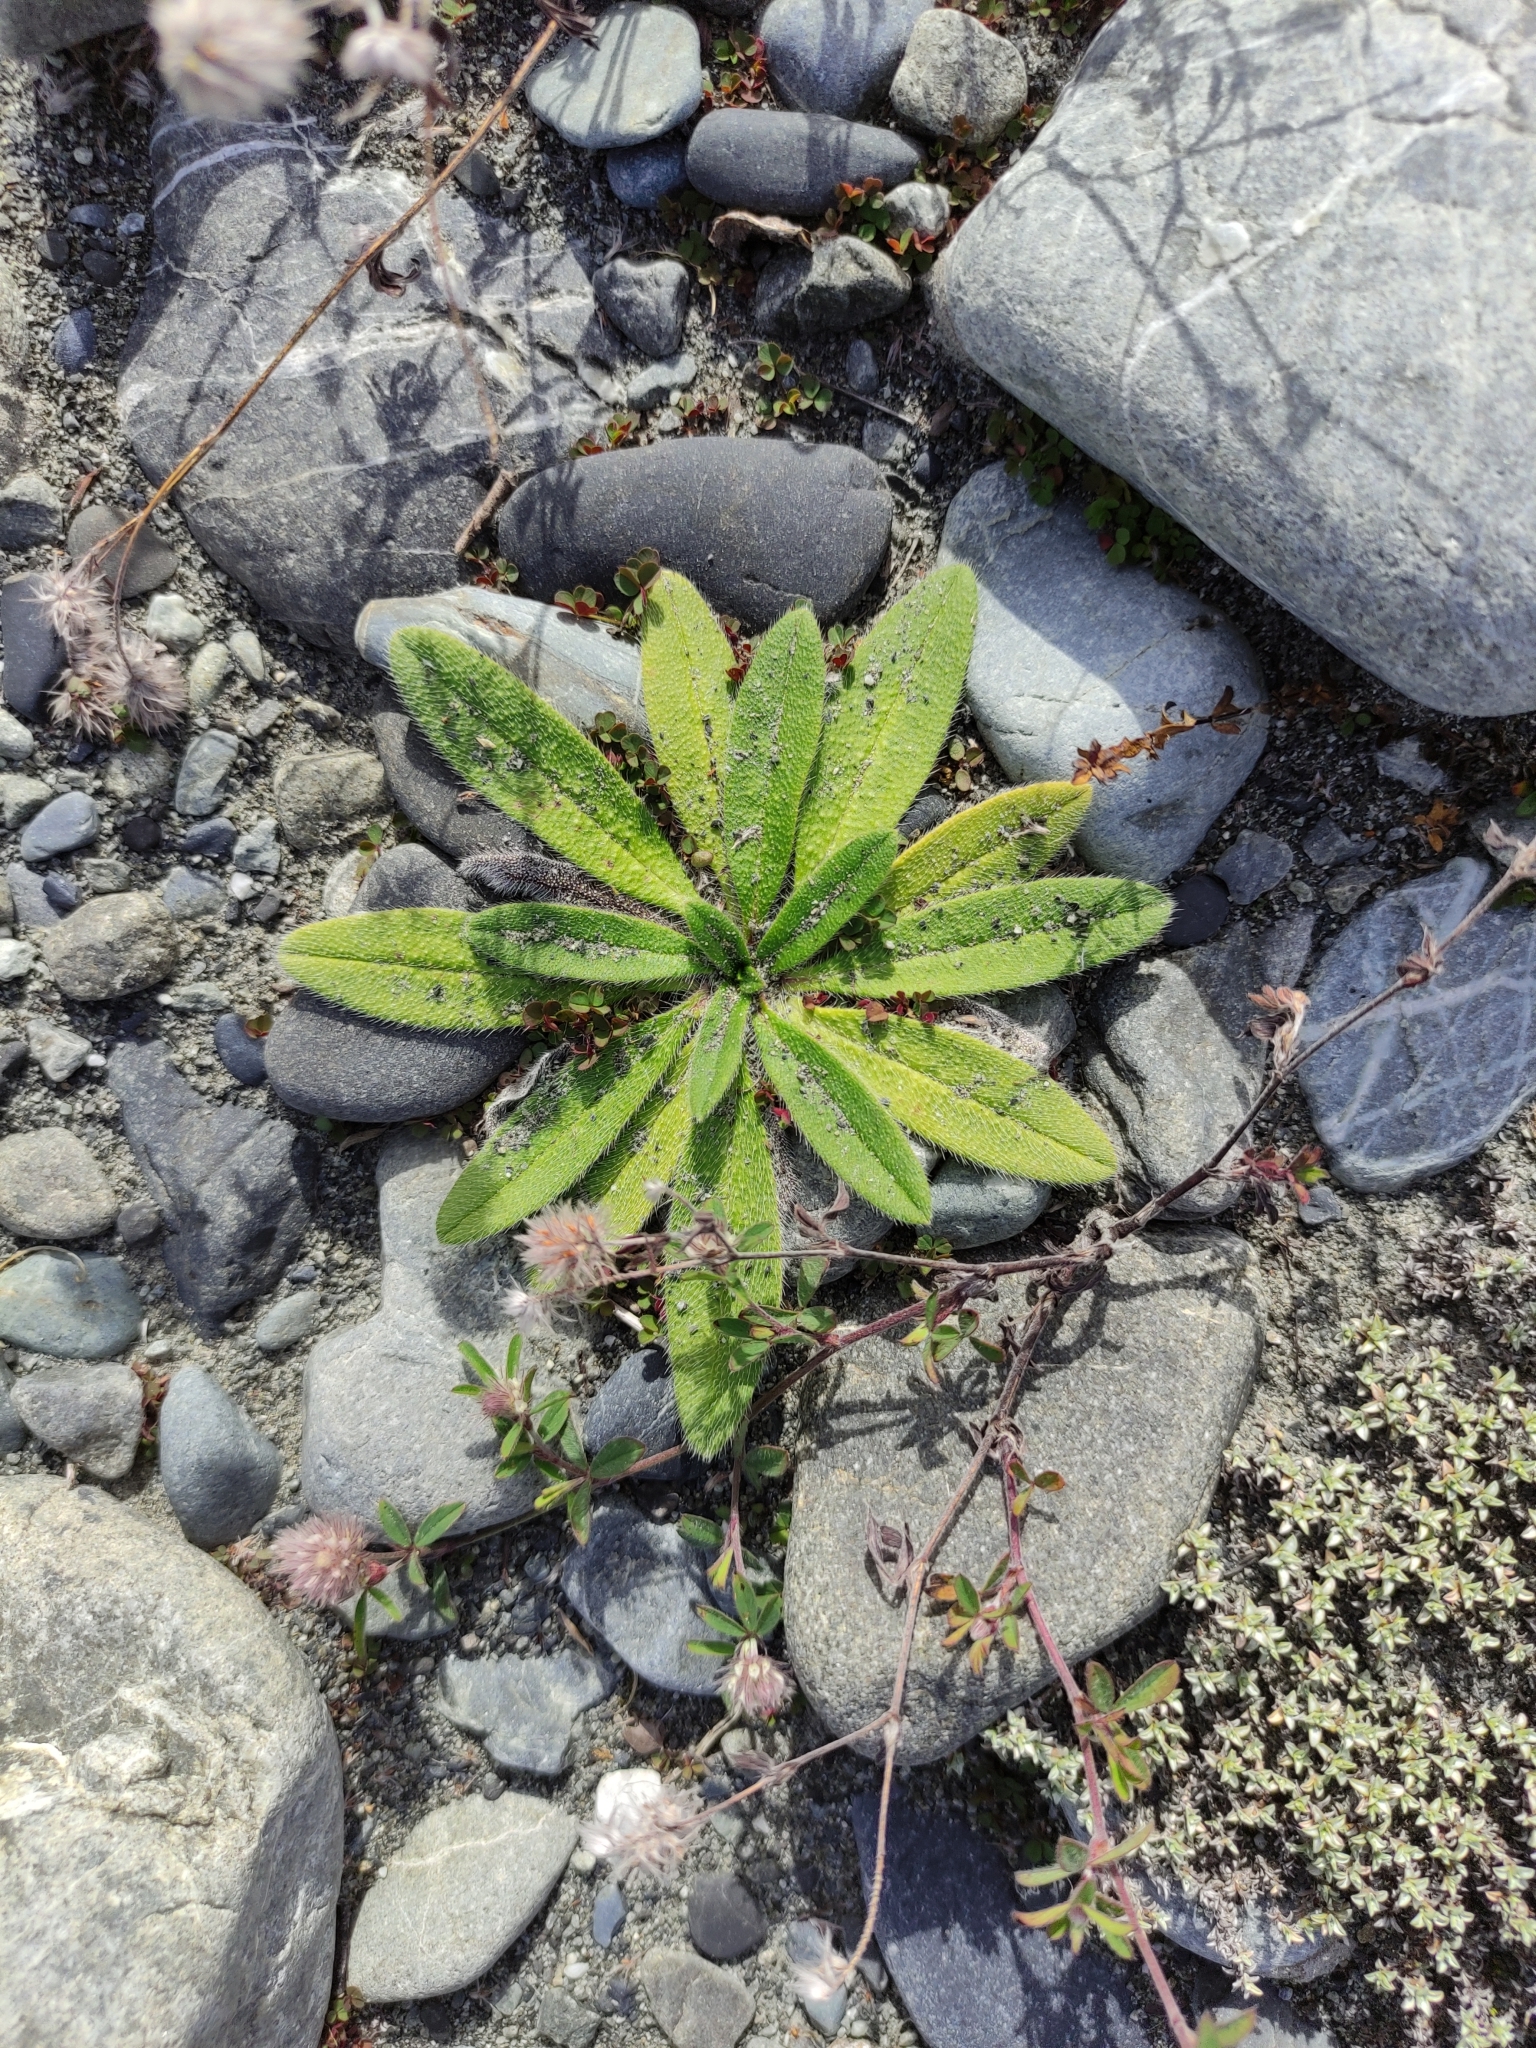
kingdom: Plantae
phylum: Tracheophyta
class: Magnoliopsida
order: Boraginales
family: Boraginaceae
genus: Echium
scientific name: Echium vulgare
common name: Common viper's bugloss
